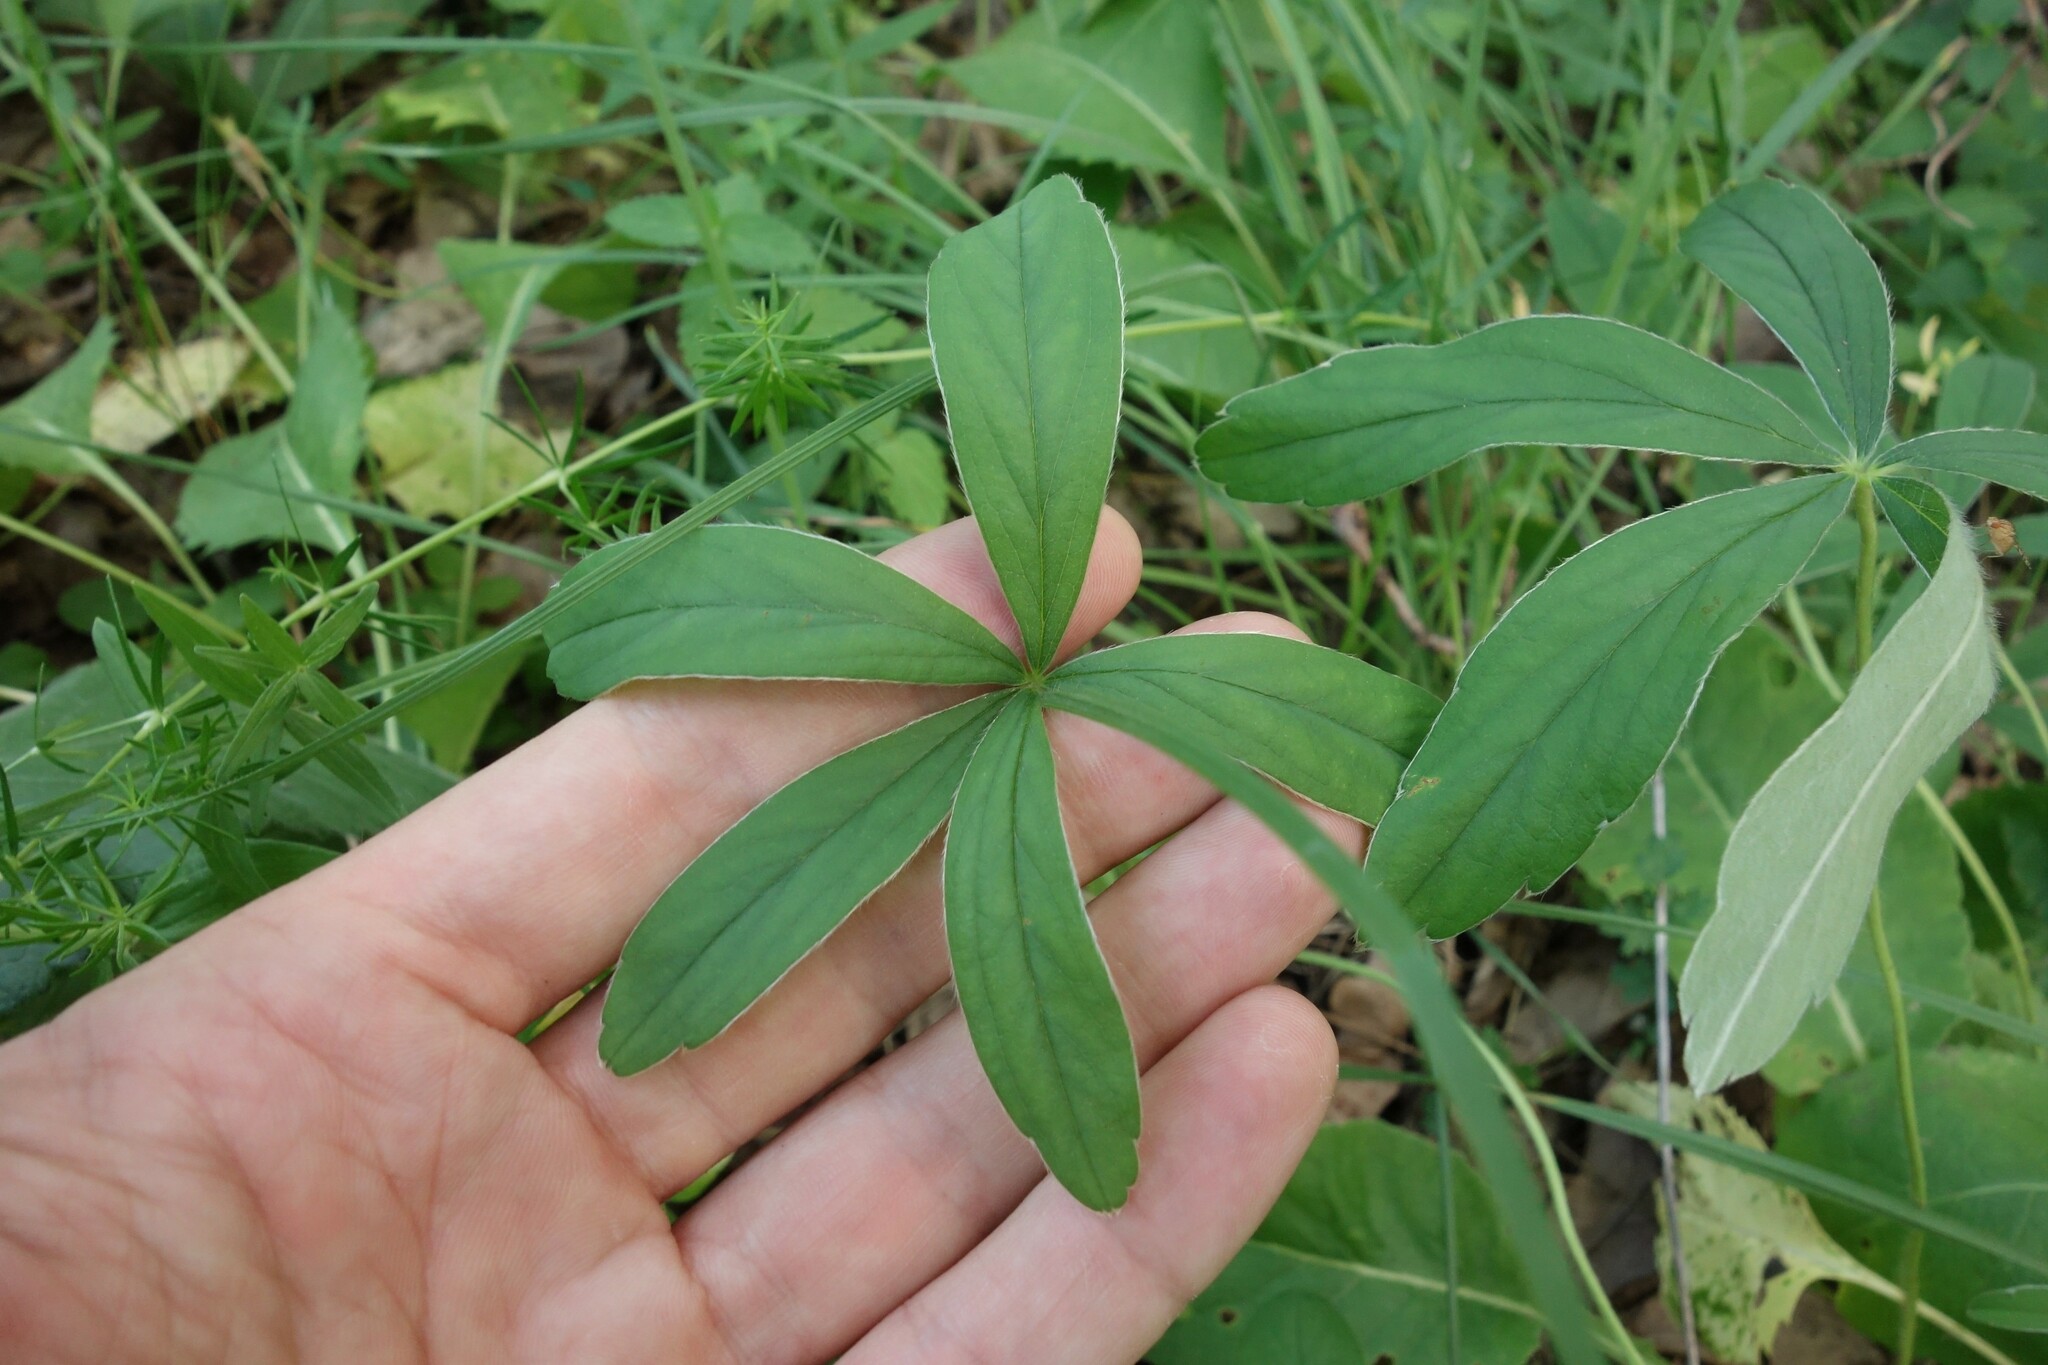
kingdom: Plantae
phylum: Tracheophyta
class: Magnoliopsida
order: Rosales
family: Rosaceae
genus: Potentilla
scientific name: Potentilla alba
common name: White cinquefoil
